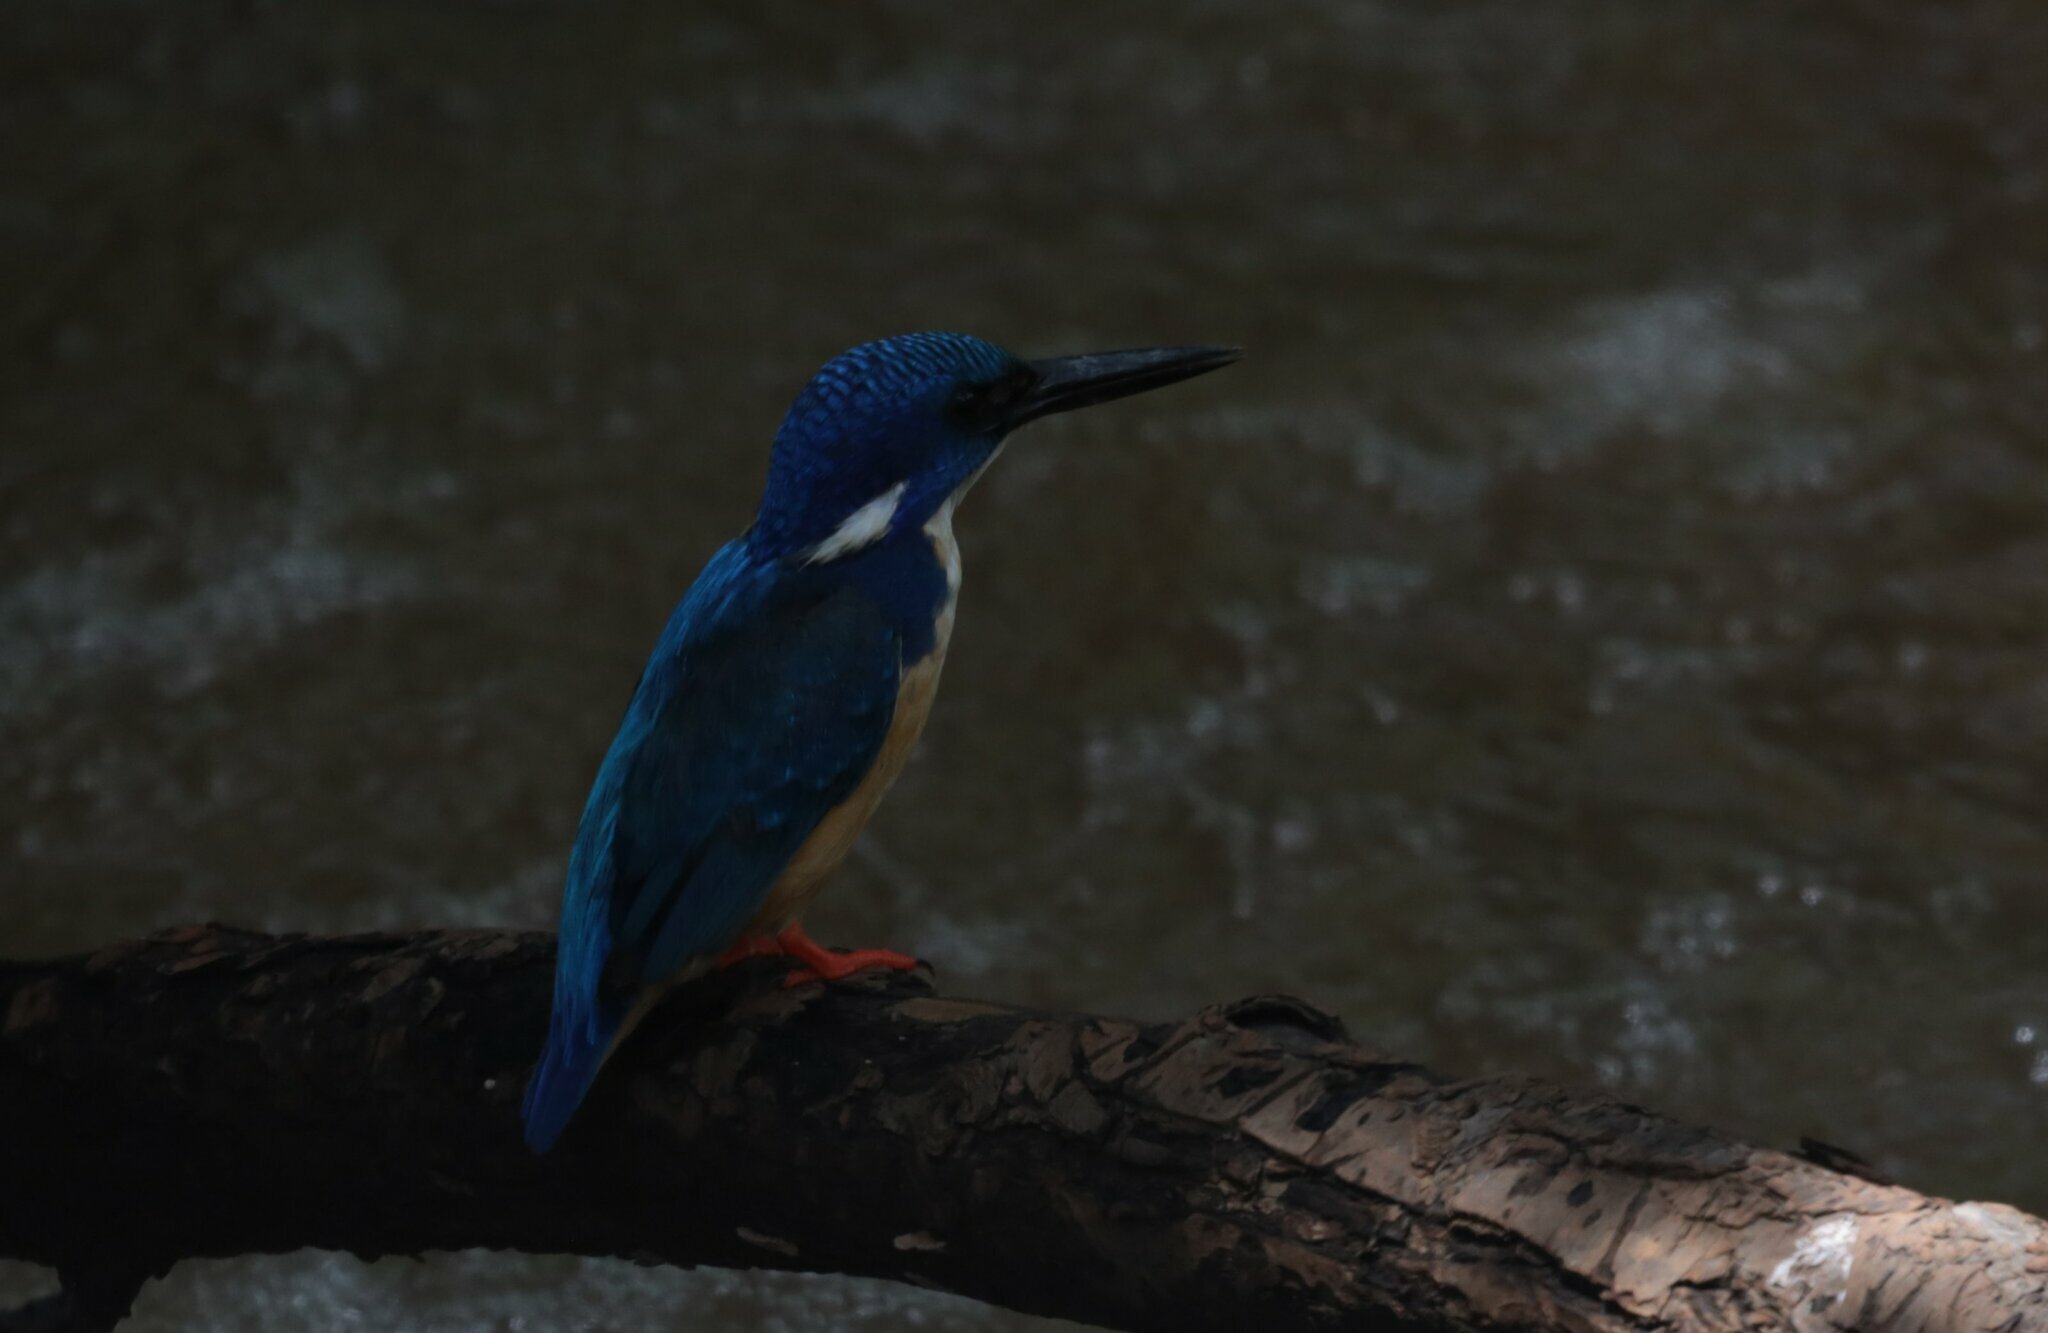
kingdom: Animalia
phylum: Chordata
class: Aves
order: Coraciiformes
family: Alcedinidae
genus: Alcedo
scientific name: Alcedo semitorquata
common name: Half-collared kingfisher
